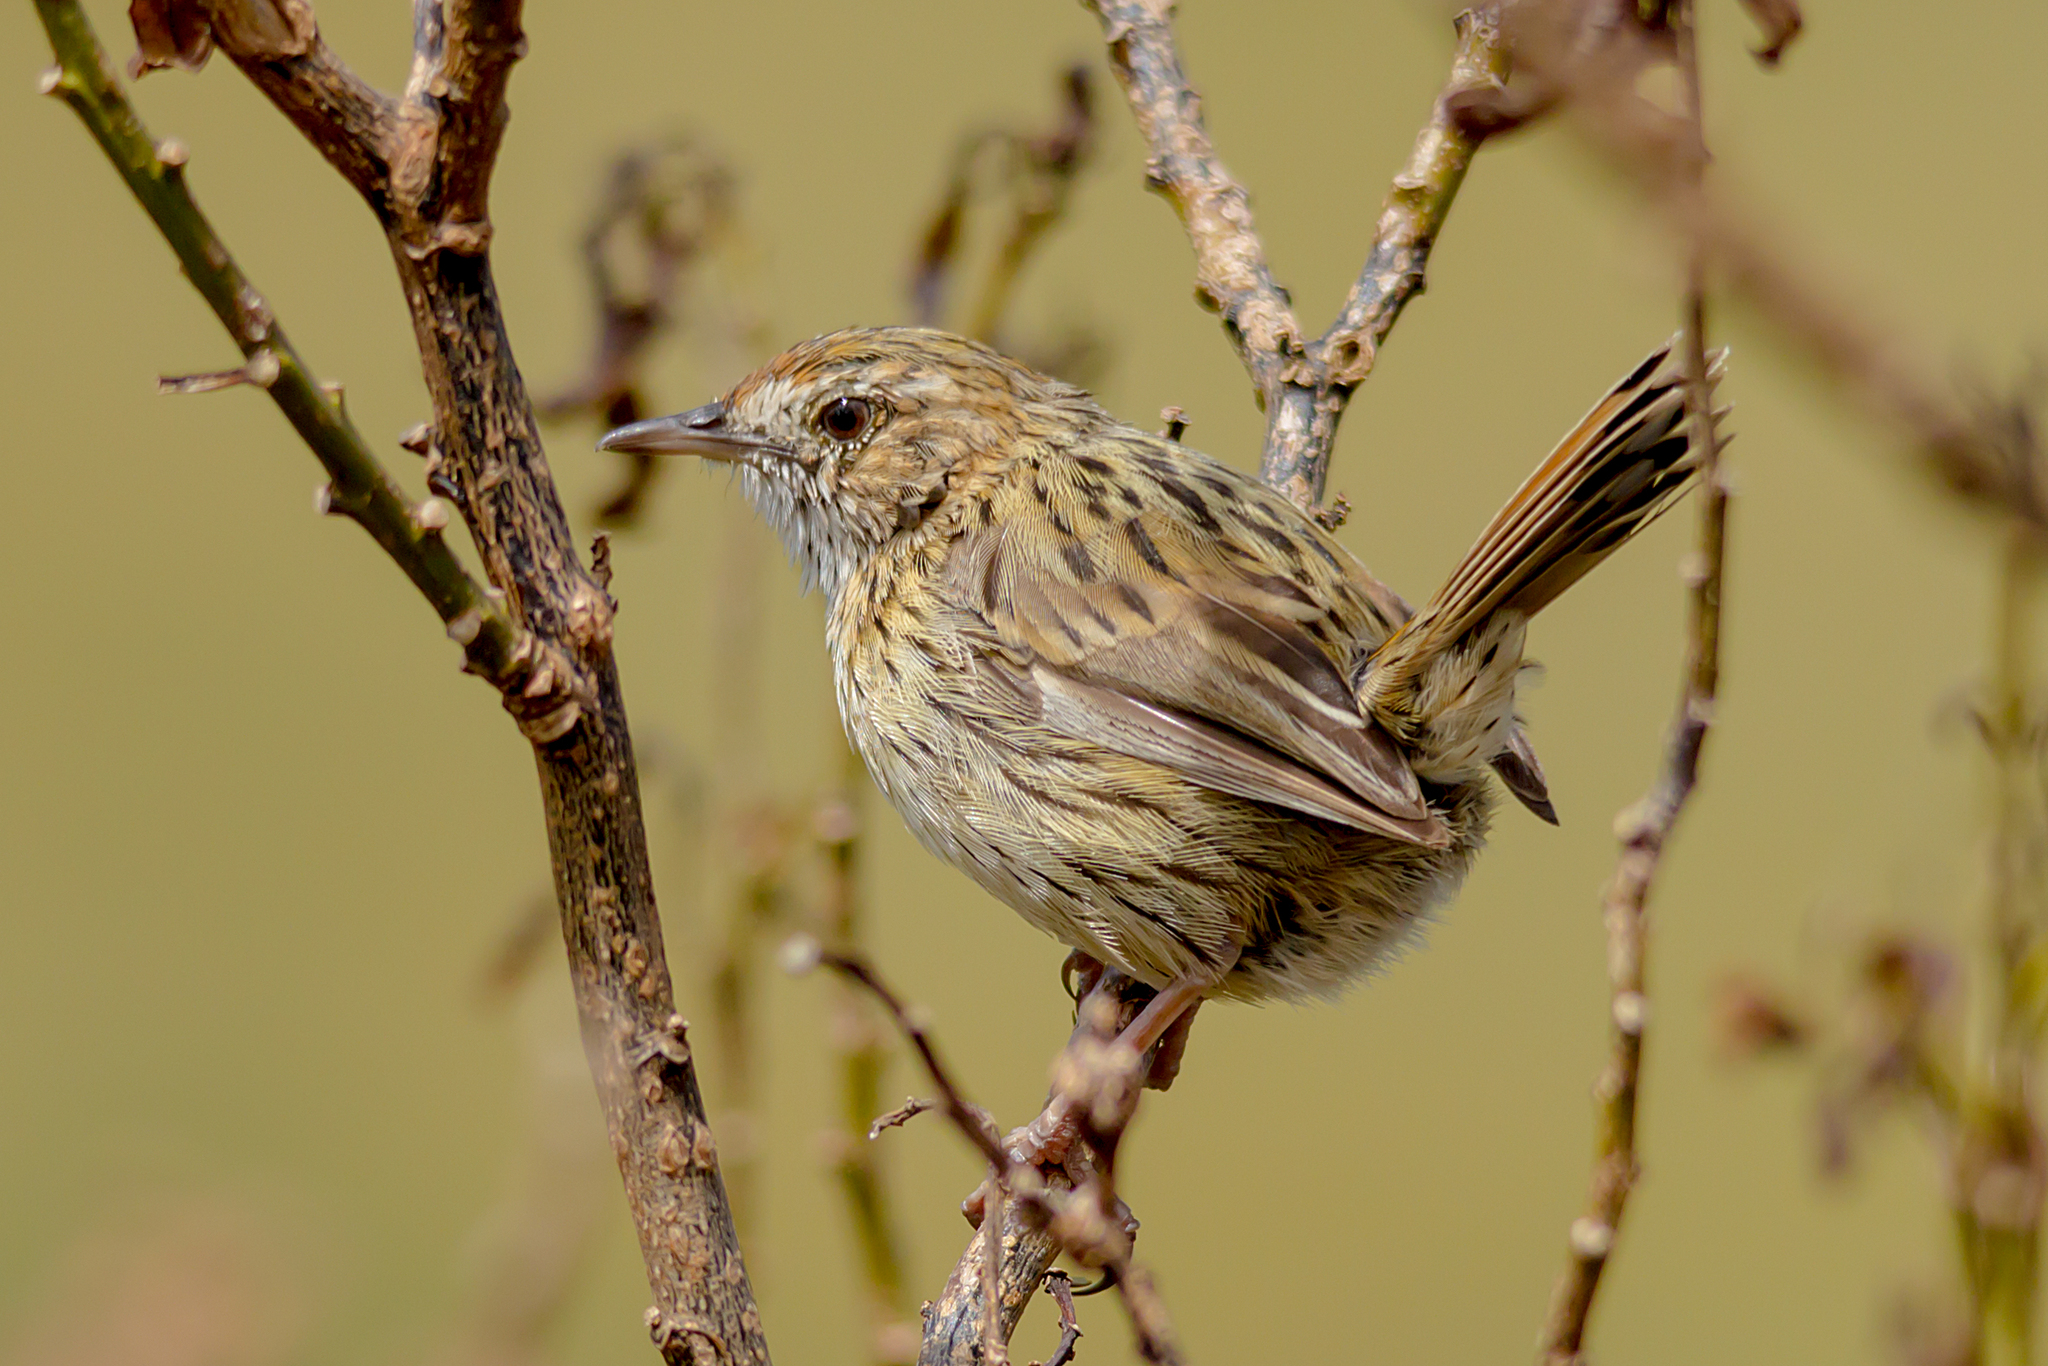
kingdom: Animalia
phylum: Chordata
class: Aves
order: Passeriformes
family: Acanthizidae
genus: Calamanthus
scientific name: Calamanthus fuliginosus
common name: Striated fieldwren
